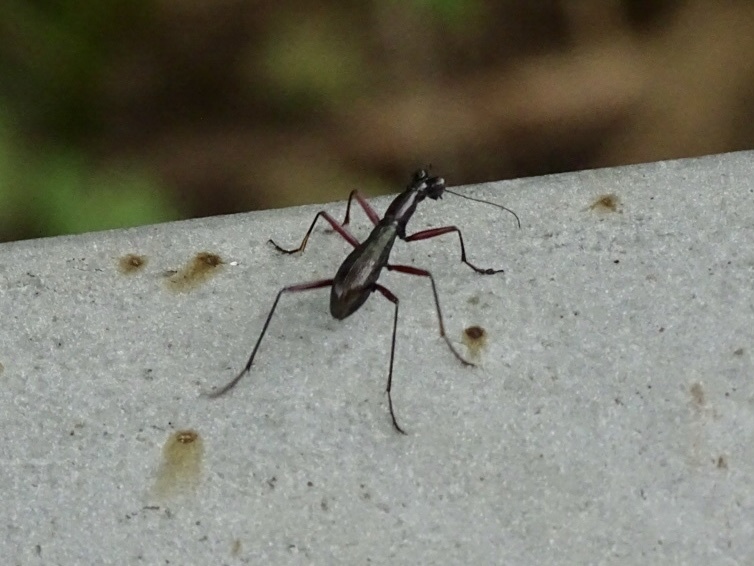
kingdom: Animalia
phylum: Arthropoda
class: Insecta
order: Coleoptera
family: Carabidae
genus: Tricondyla
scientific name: Tricondyla pulchripes
